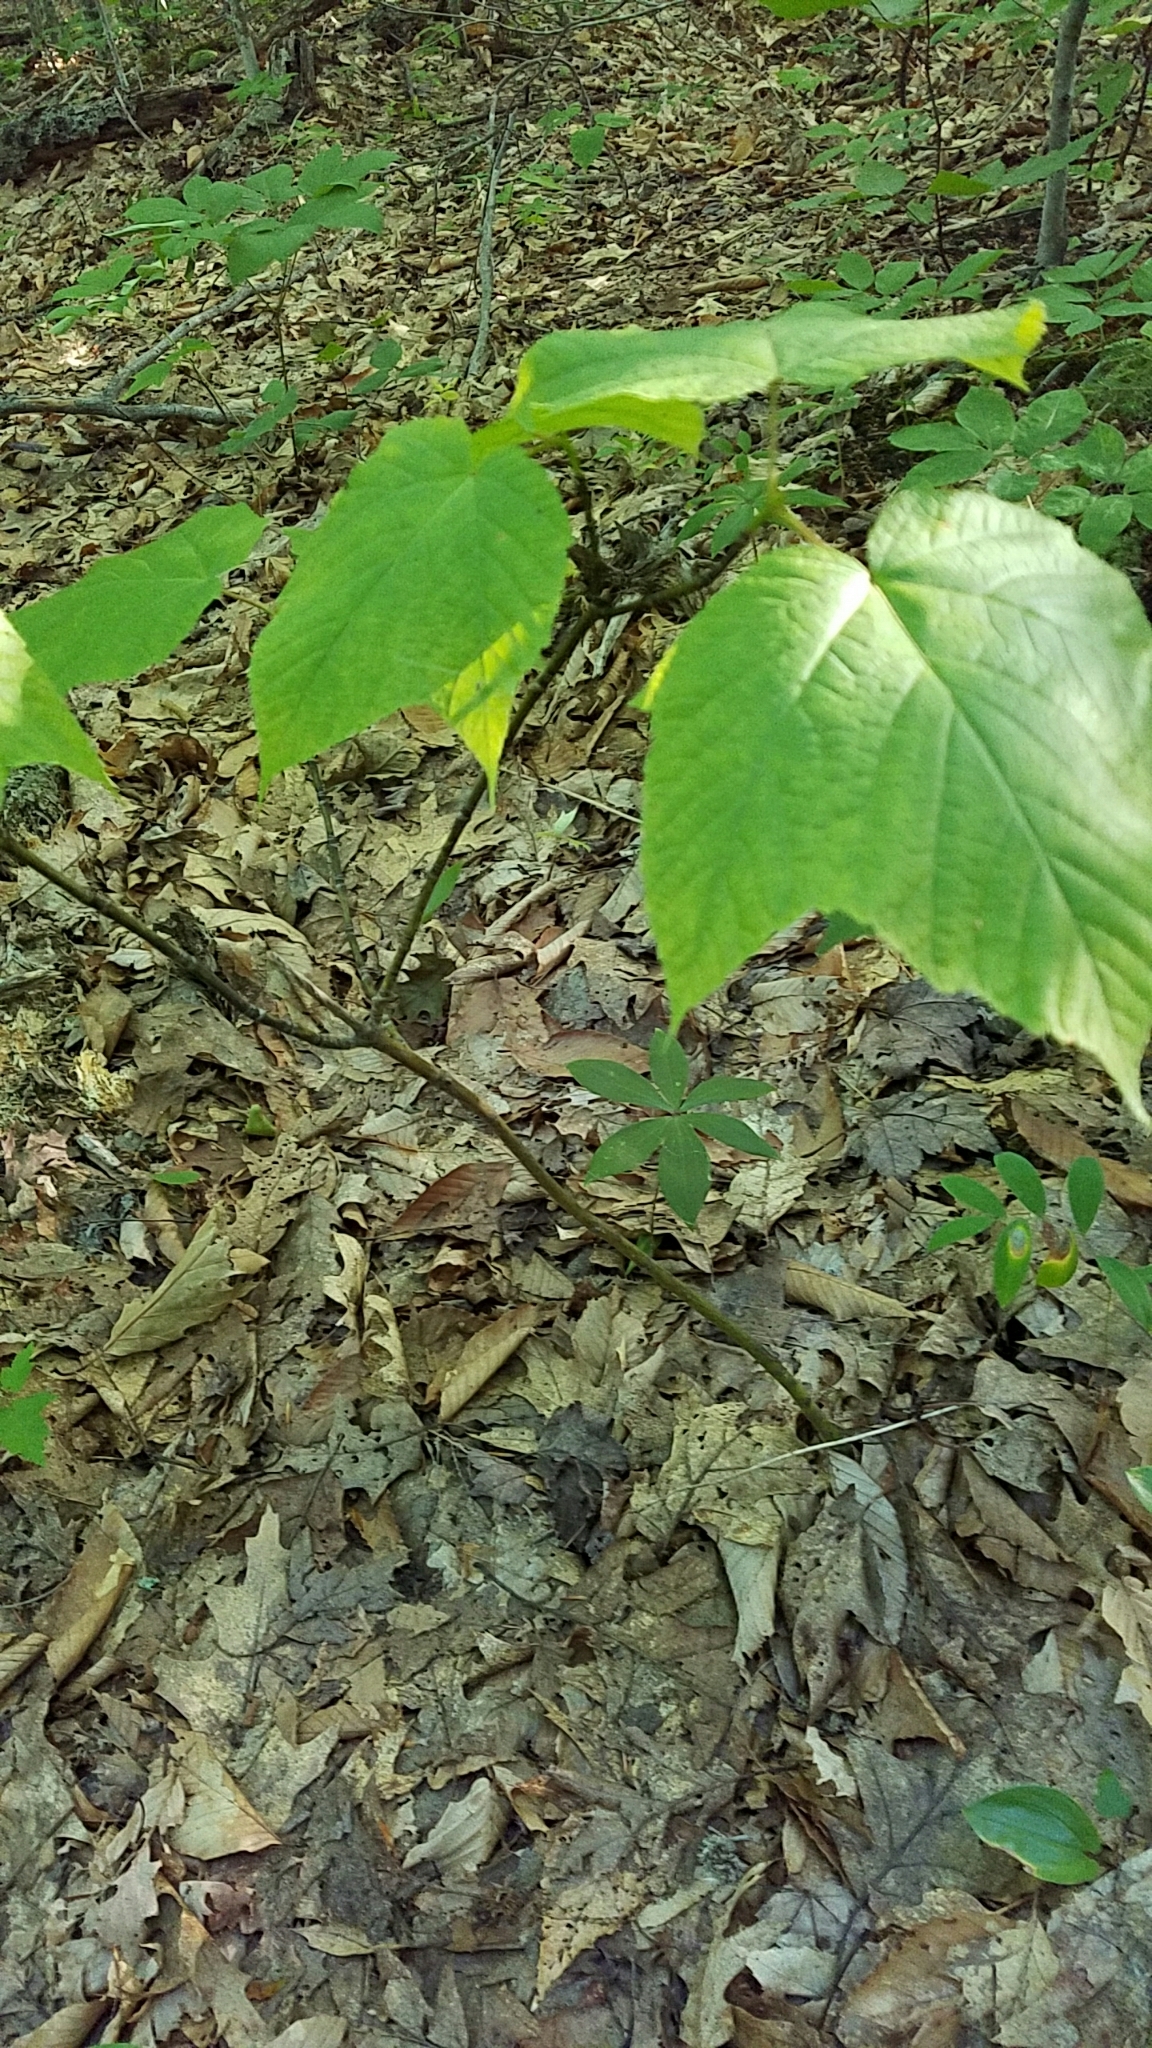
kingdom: Plantae
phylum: Tracheophyta
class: Magnoliopsida
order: Sapindales
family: Sapindaceae
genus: Acer
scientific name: Acer pensylvanicum
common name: Moosewood
